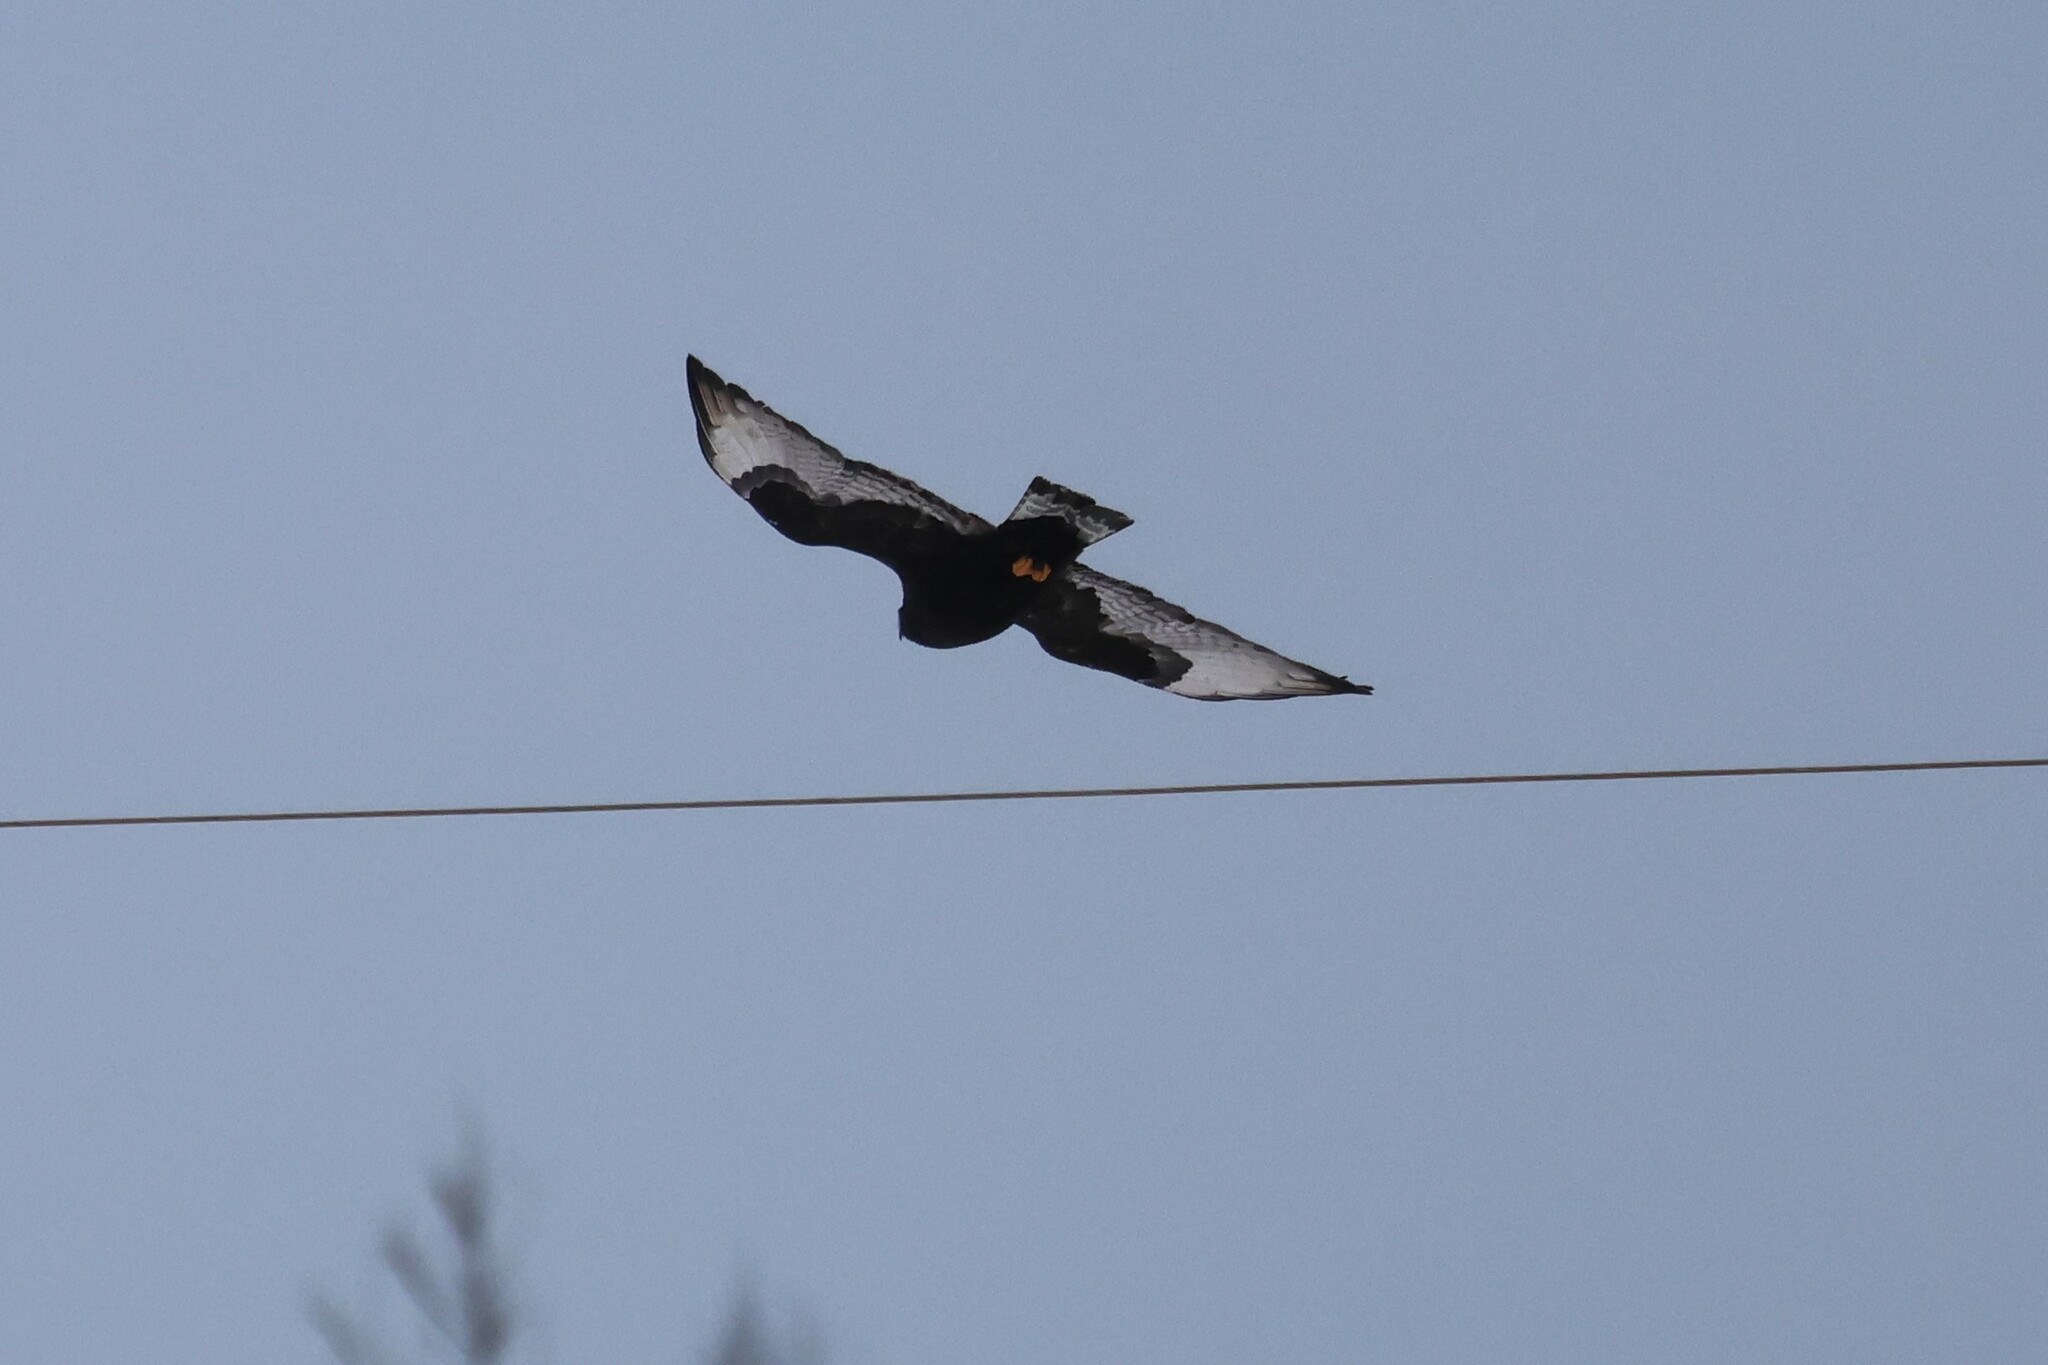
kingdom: Animalia
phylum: Chordata
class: Aves
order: Accipitriformes
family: Accipitridae
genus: Buteo
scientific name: Buteo lagopus
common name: Rough-legged buzzard
